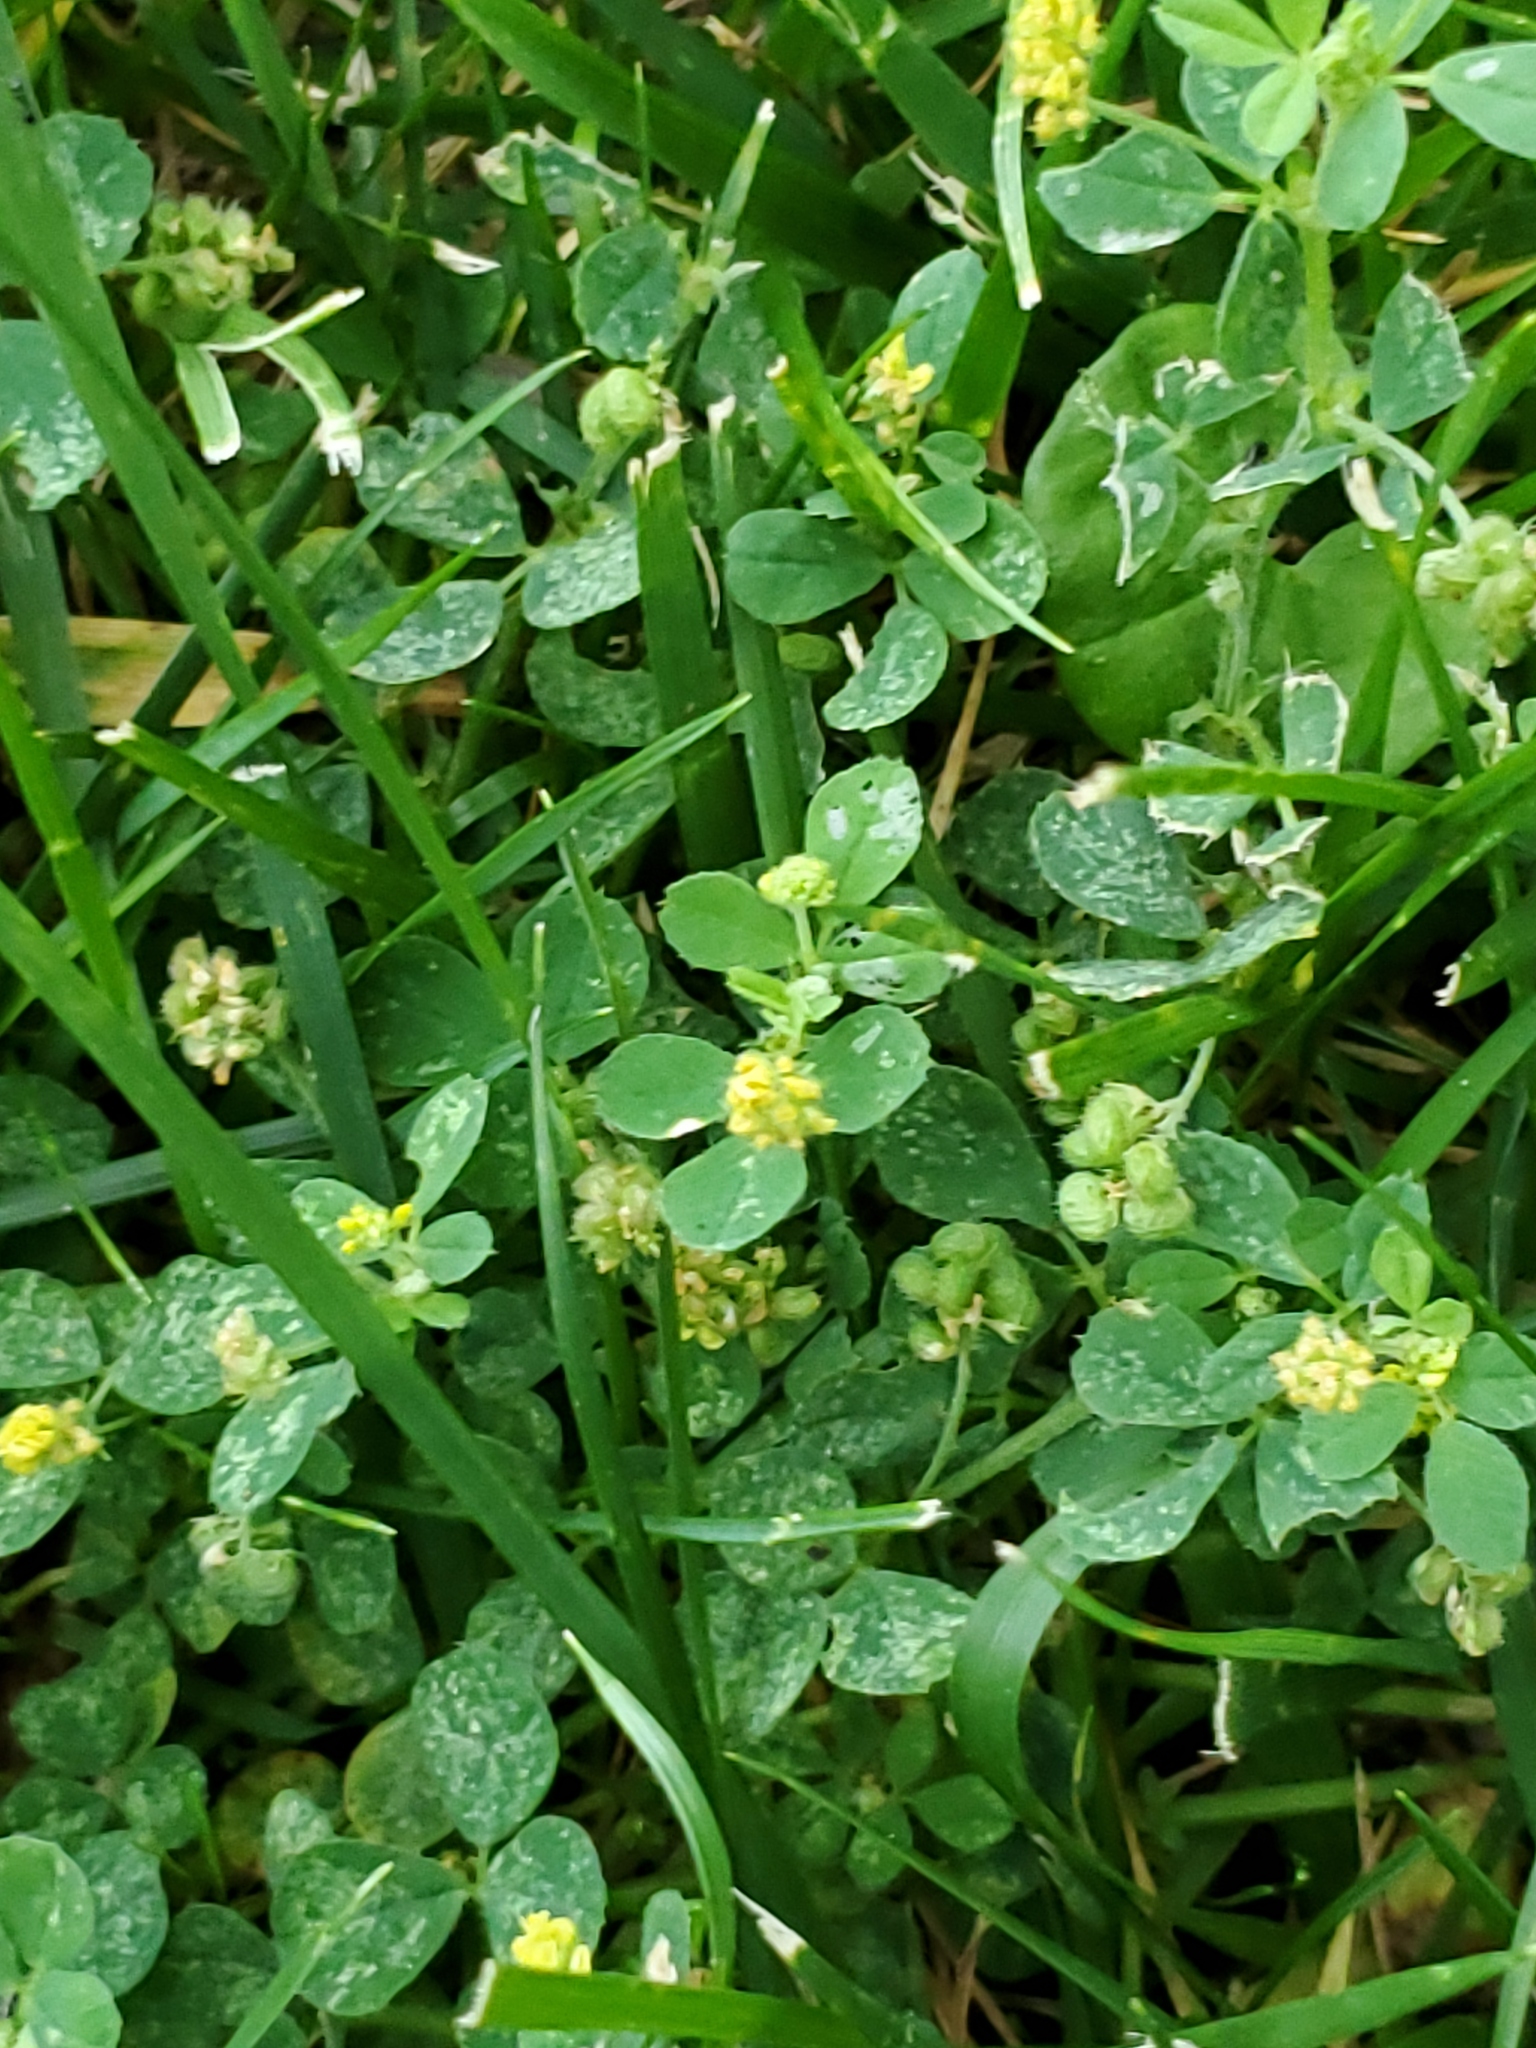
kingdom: Plantae
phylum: Tracheophyta
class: Magnoliopsida
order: Fabales
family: Fabaceae
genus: Medicago
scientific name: Medicago lupulina
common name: Black medick
